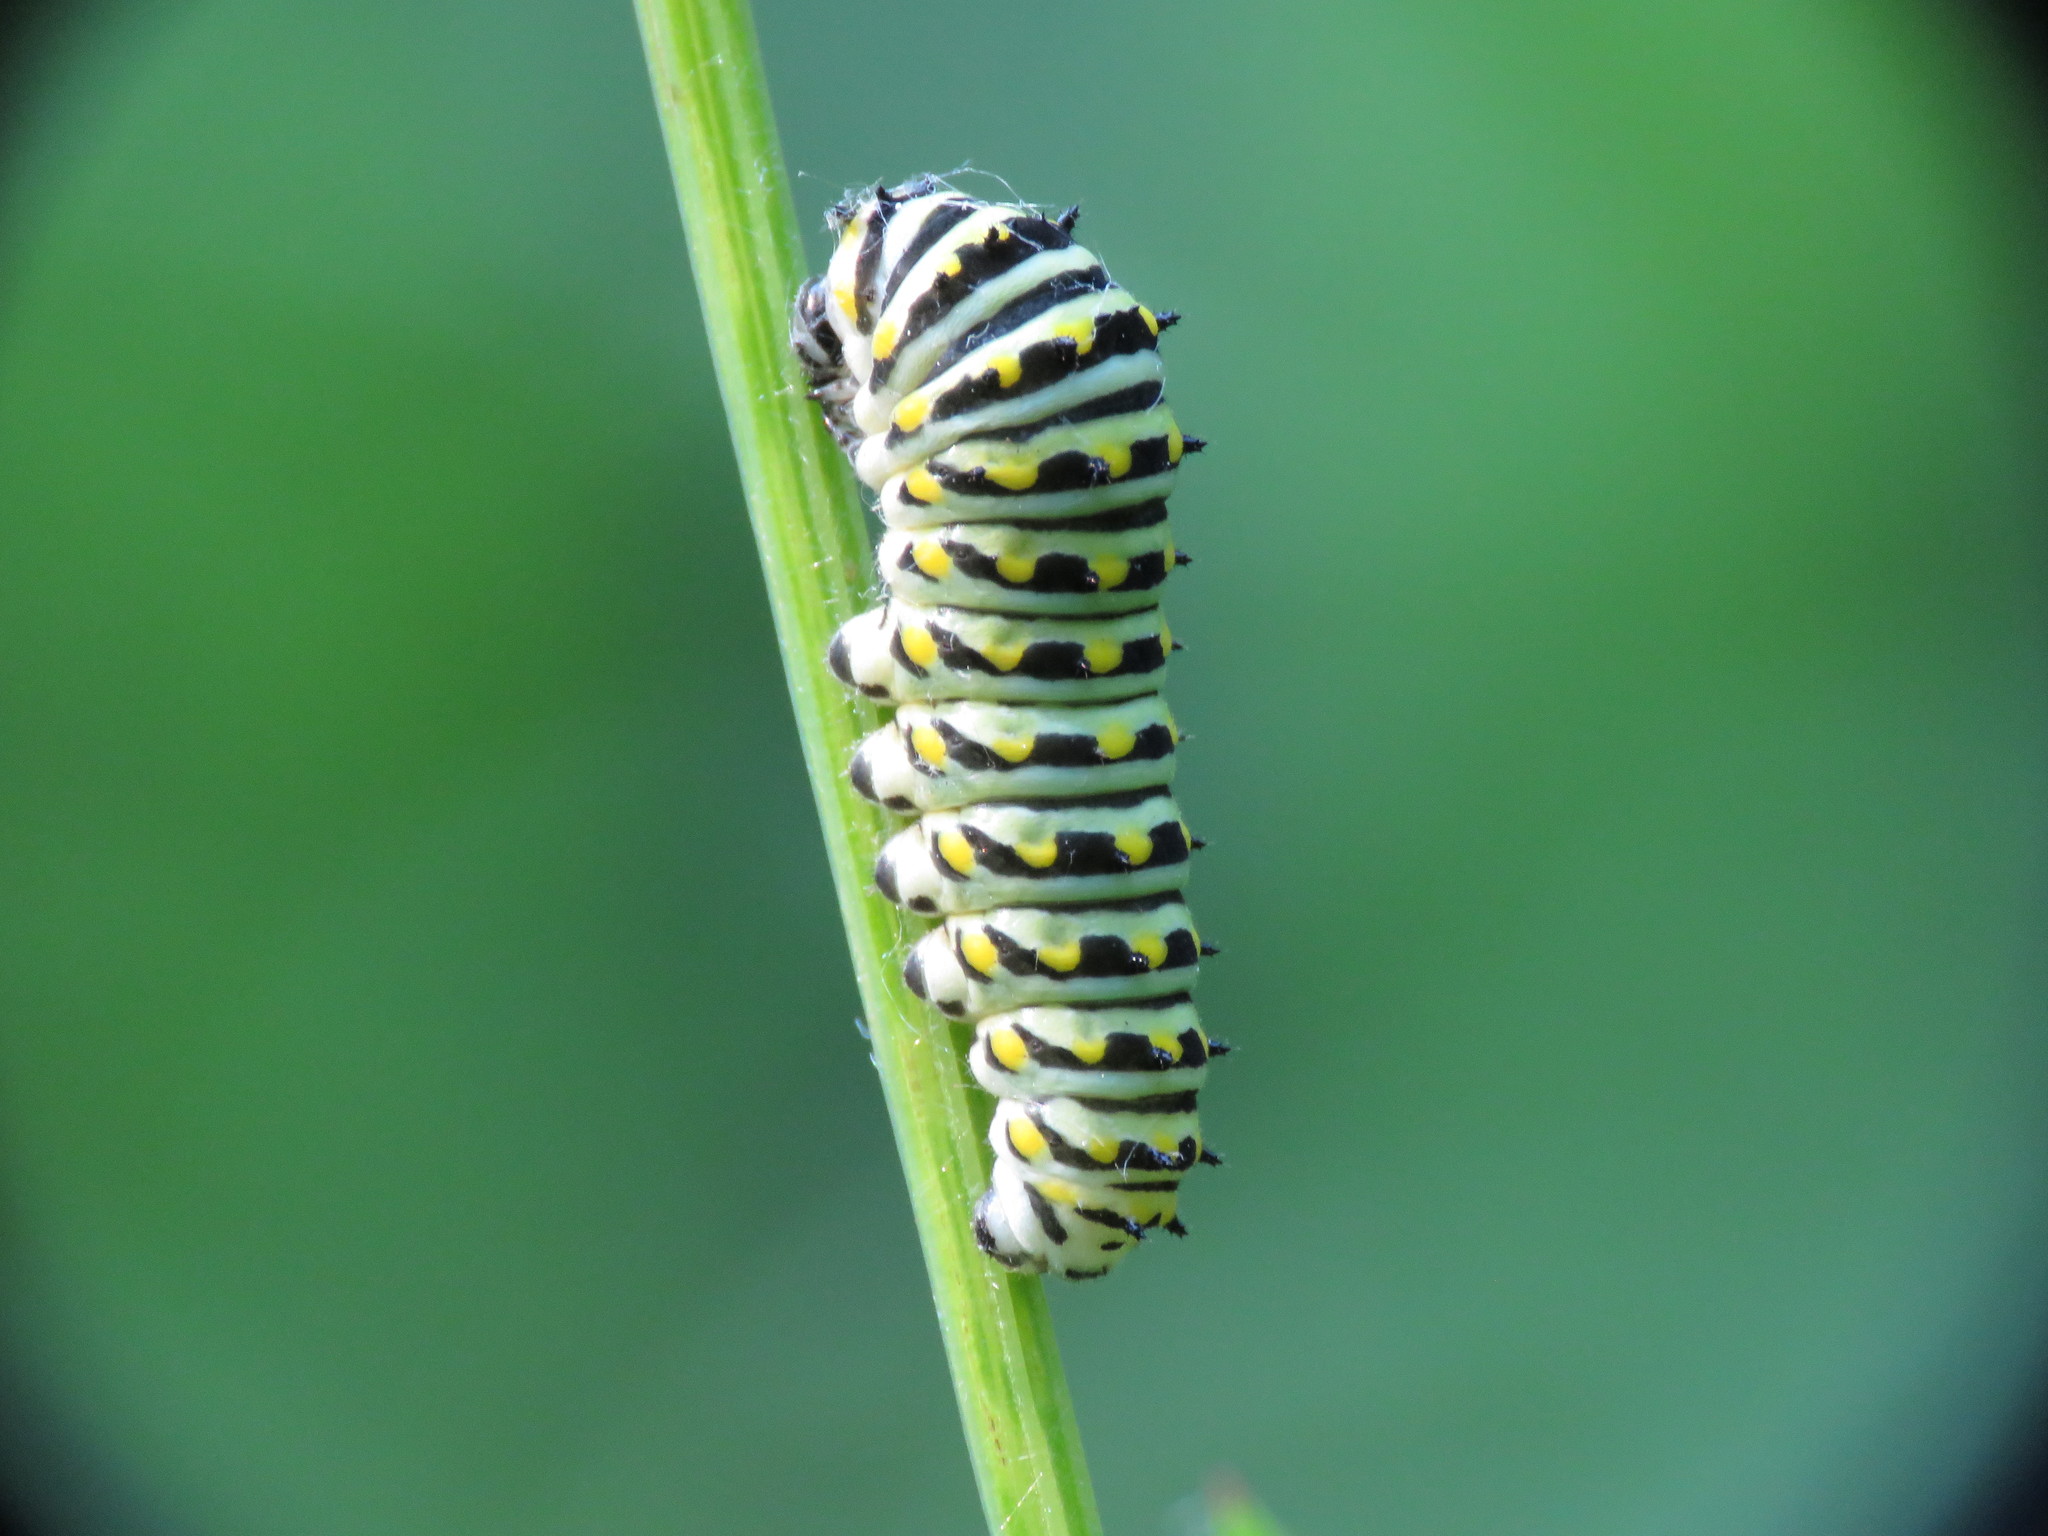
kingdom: Animalia
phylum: Arthropoda
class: Insecta
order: Lepidoptera
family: Papilionidae
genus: Papilio
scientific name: Papilio polyxenes
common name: Black swallowtail
